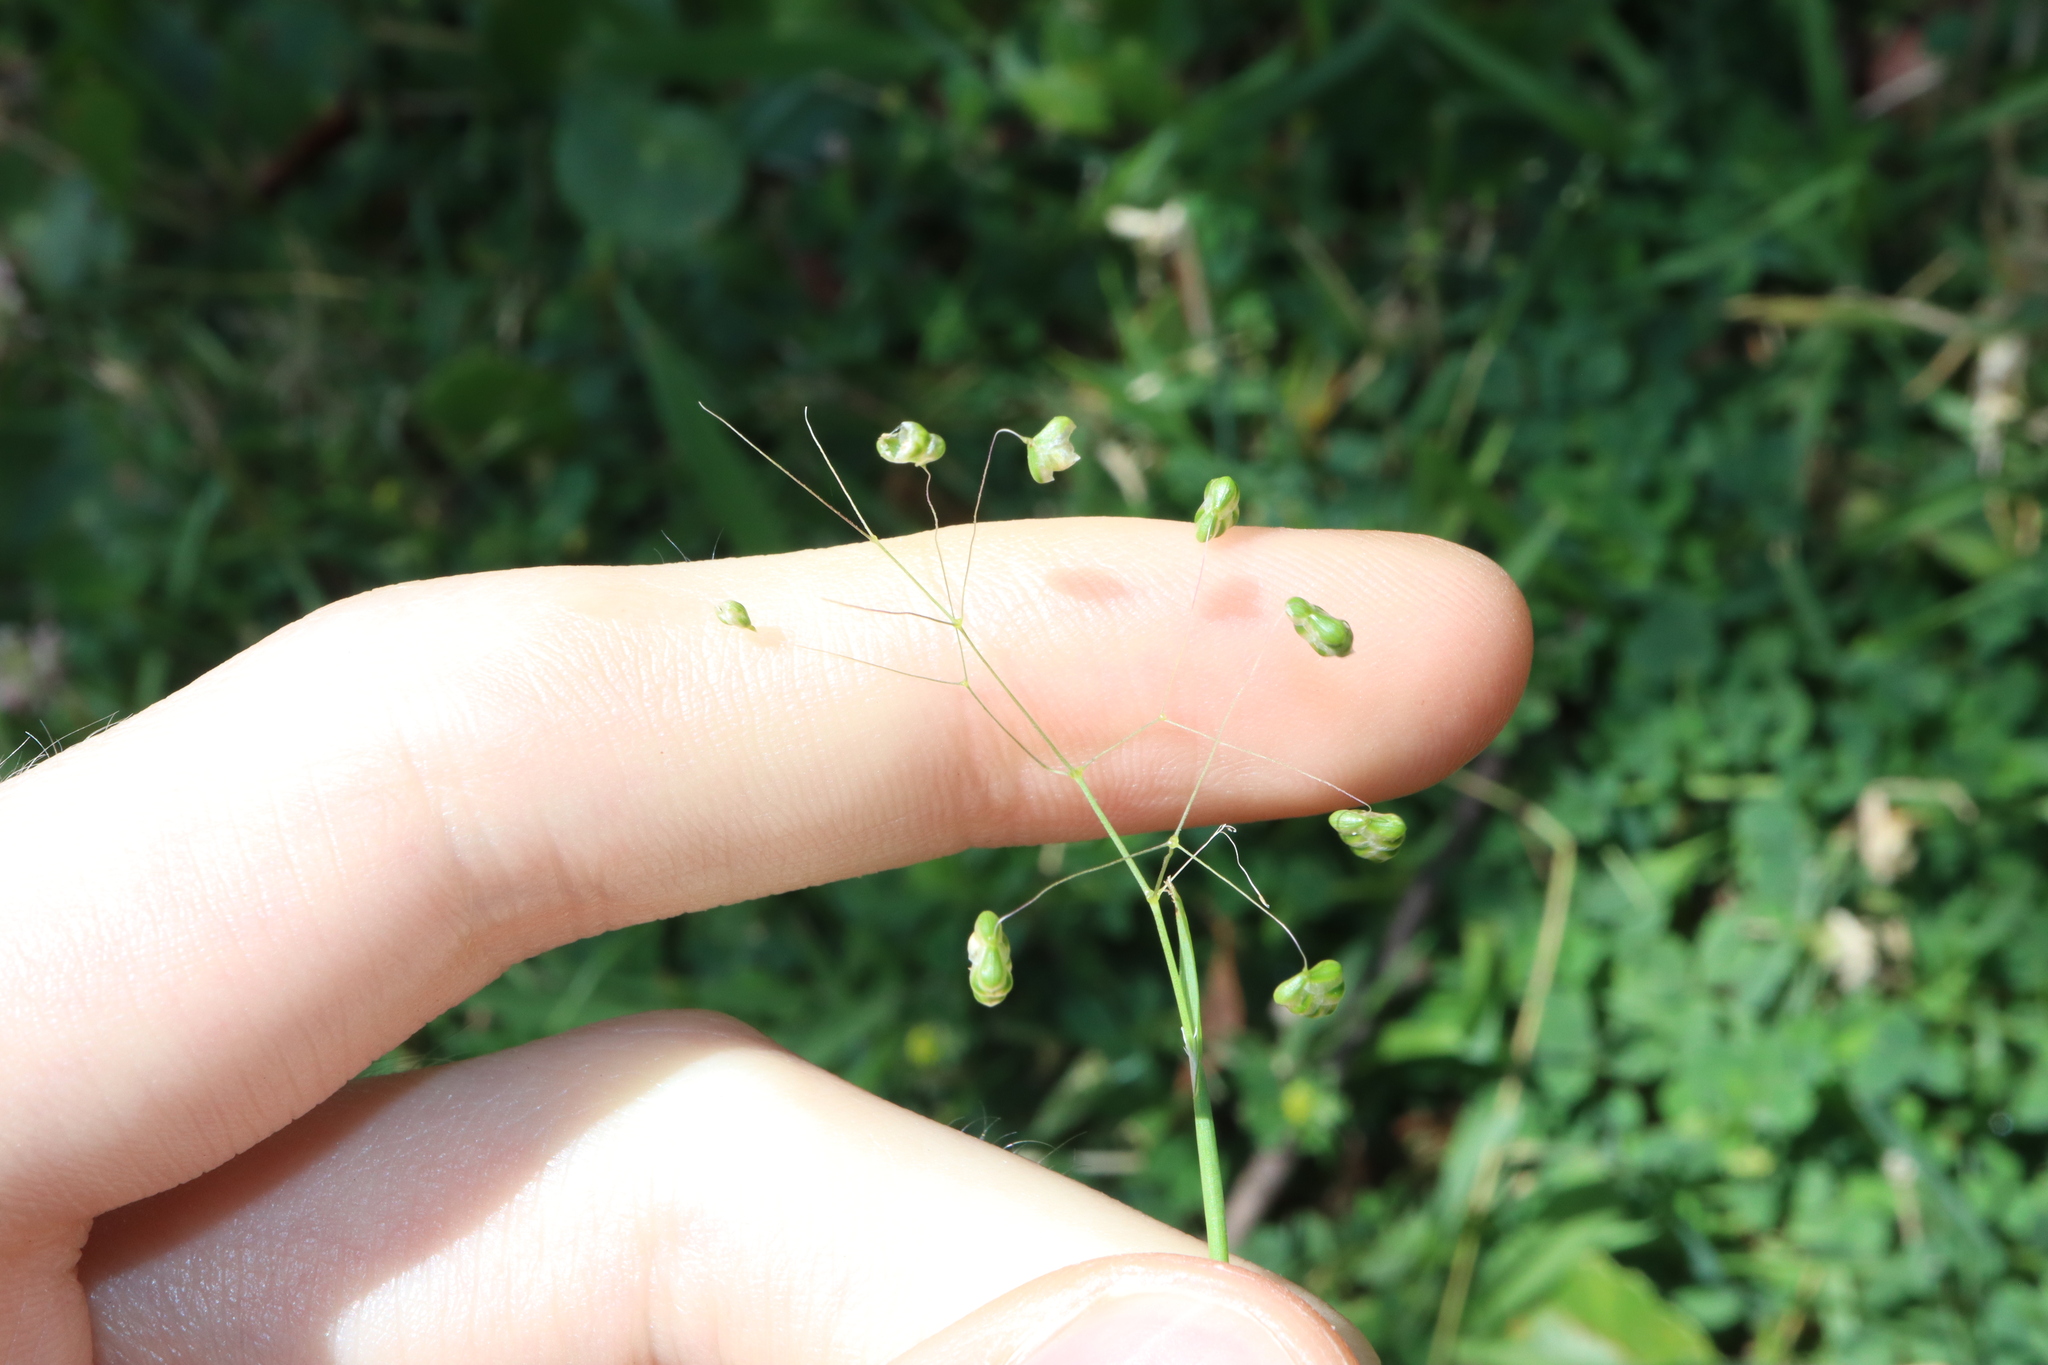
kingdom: Plantae
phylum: Tracheophyta
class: Liliopsida
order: Poales
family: Poaceae
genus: Briza
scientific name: Briza minor
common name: Lesser quaking-grass
